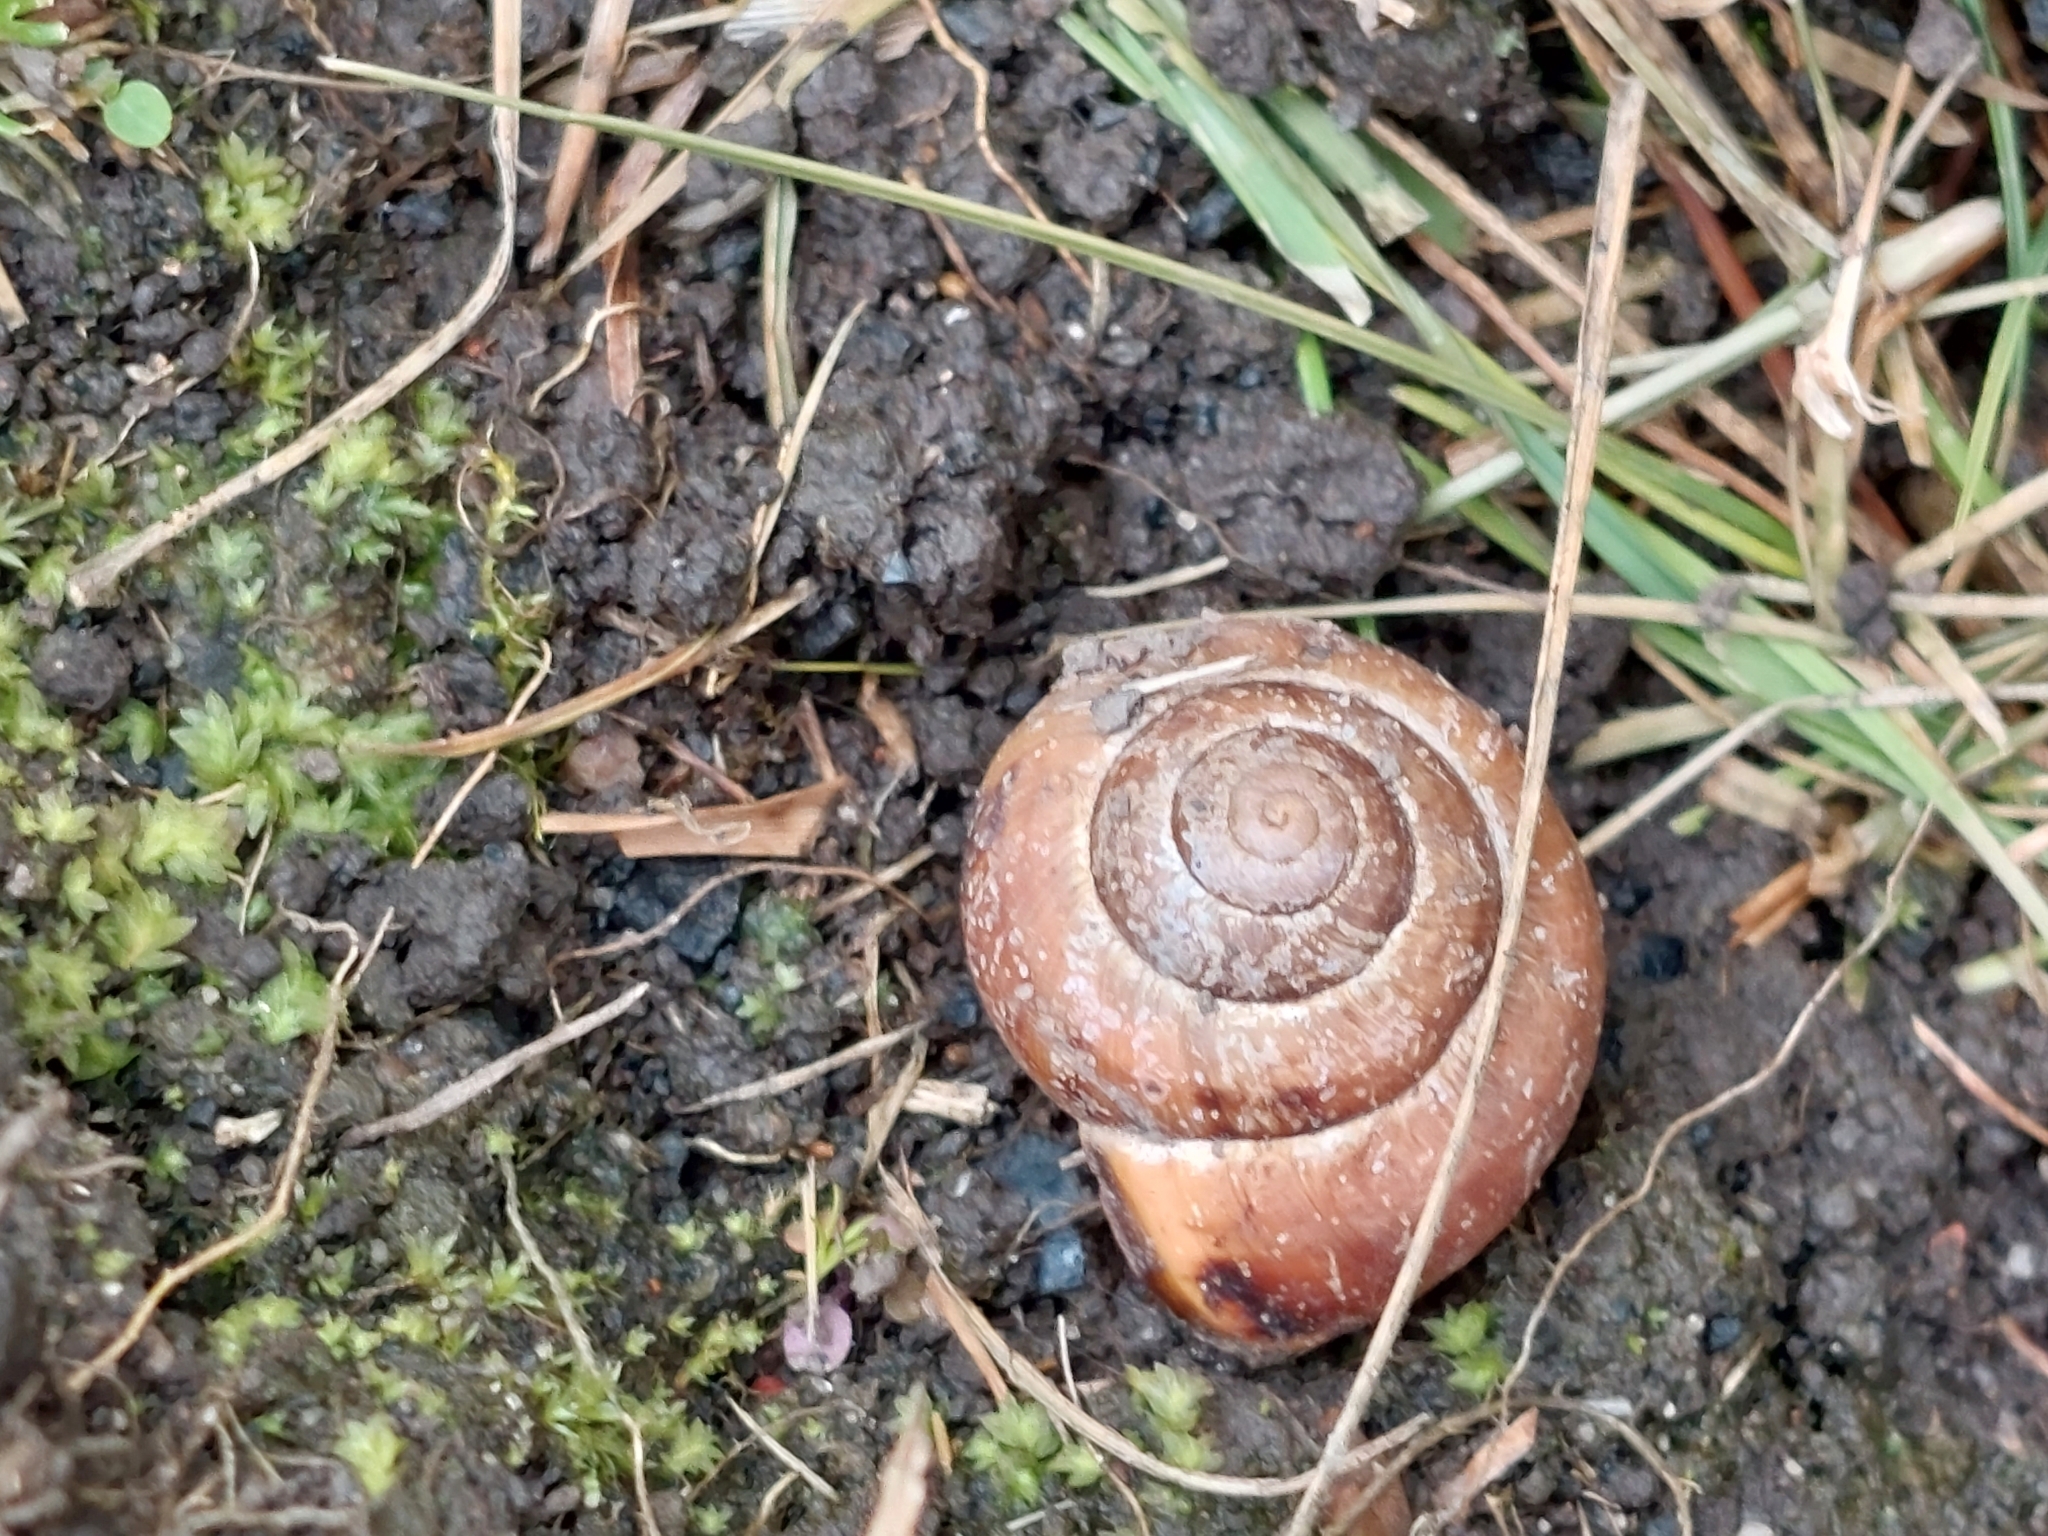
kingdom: Animalia
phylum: Mollusca
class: Gastropoda
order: Stylommatophora
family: Helicidae
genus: Cepaea
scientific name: Cepaea nemoralis
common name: Grovesnail
